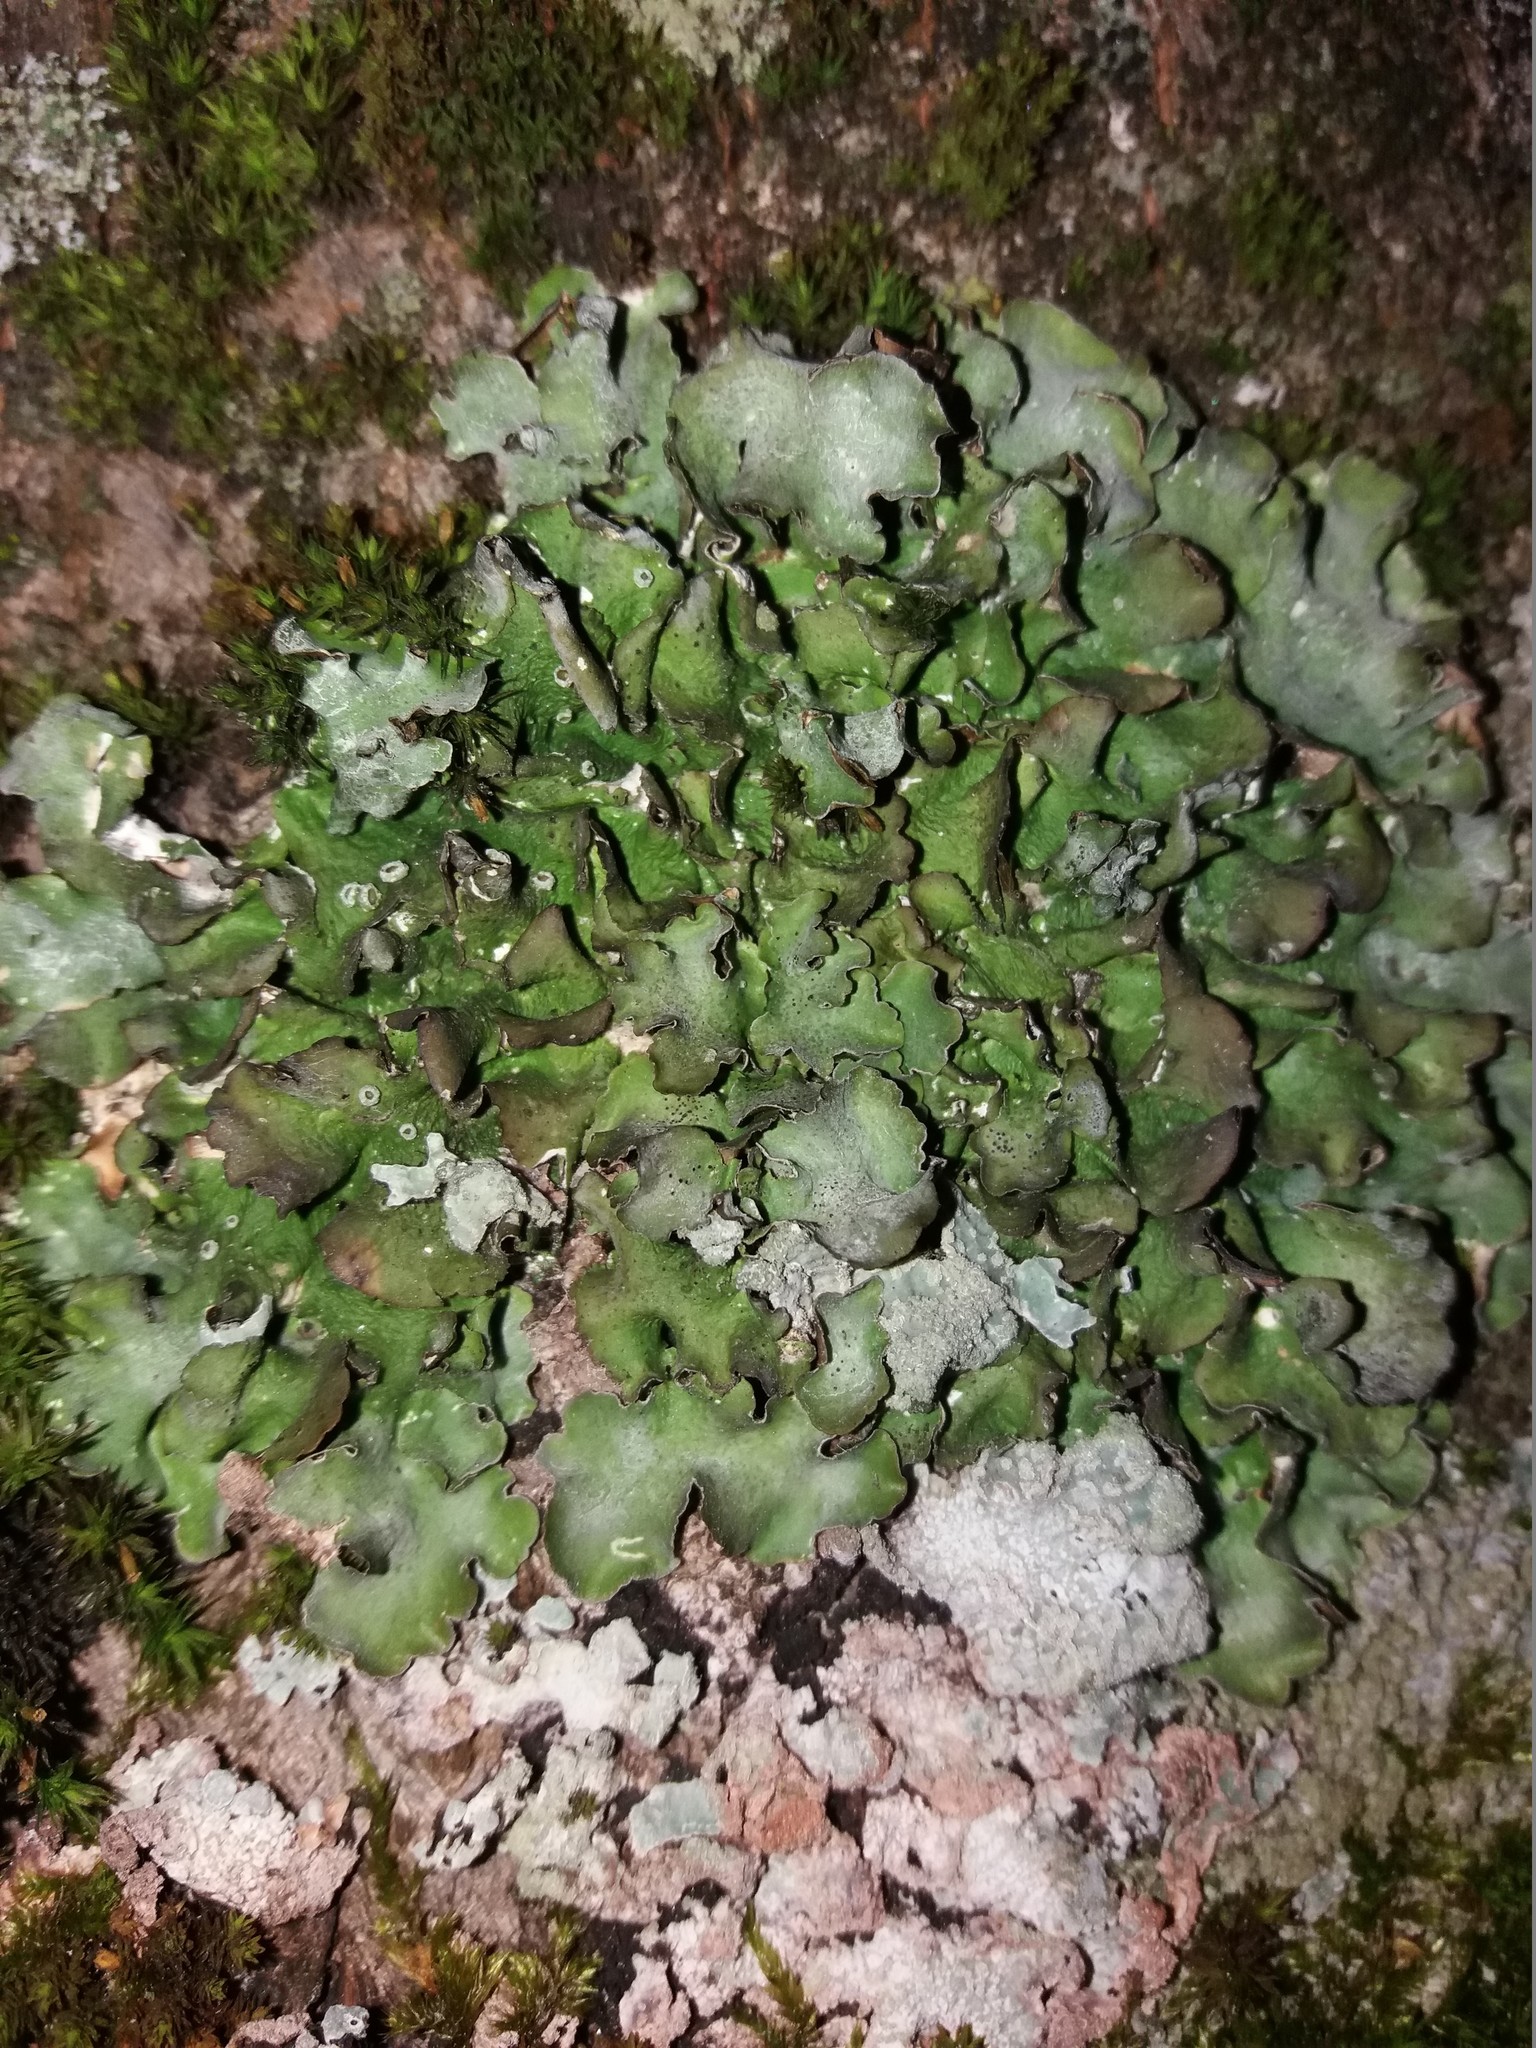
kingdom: Fungi
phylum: Ascomycota
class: Lecanoromycetes
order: Lecanorales
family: Parmeliaceae
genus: Pleurosticta
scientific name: Pleurosticta acetabulum
